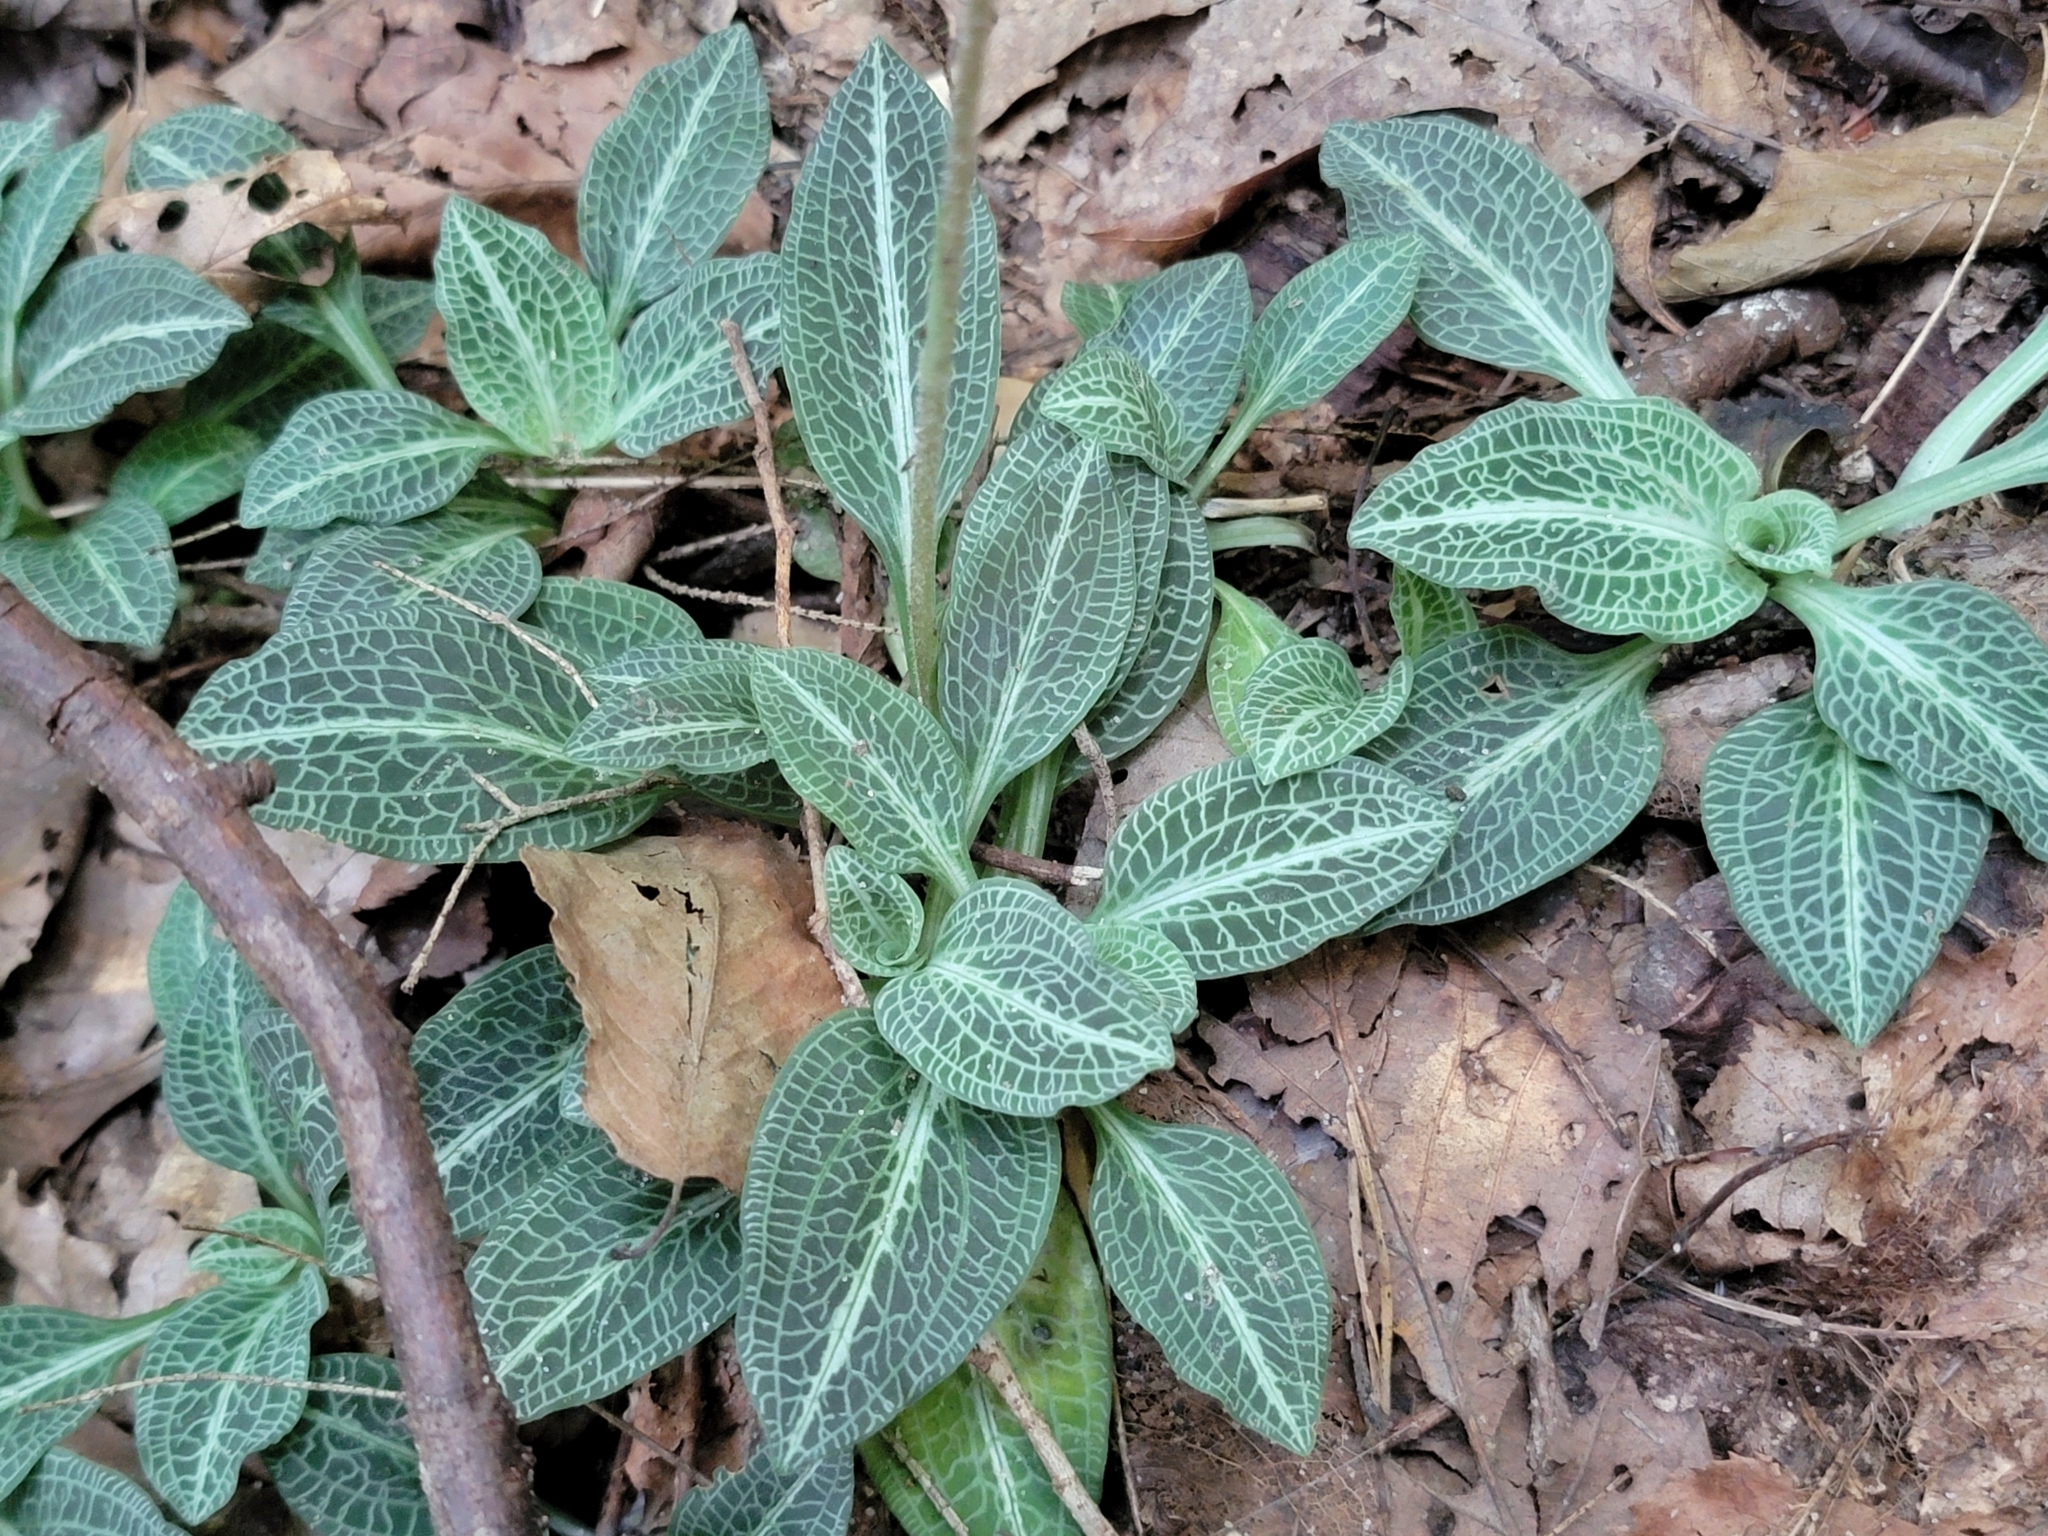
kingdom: Plantae
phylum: Tracheophyta
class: Liliopsida
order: Asparagales
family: Orchidaceae
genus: Goodyera
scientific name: Goodyera pubescens
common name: Downy rattlesnake-plantain
